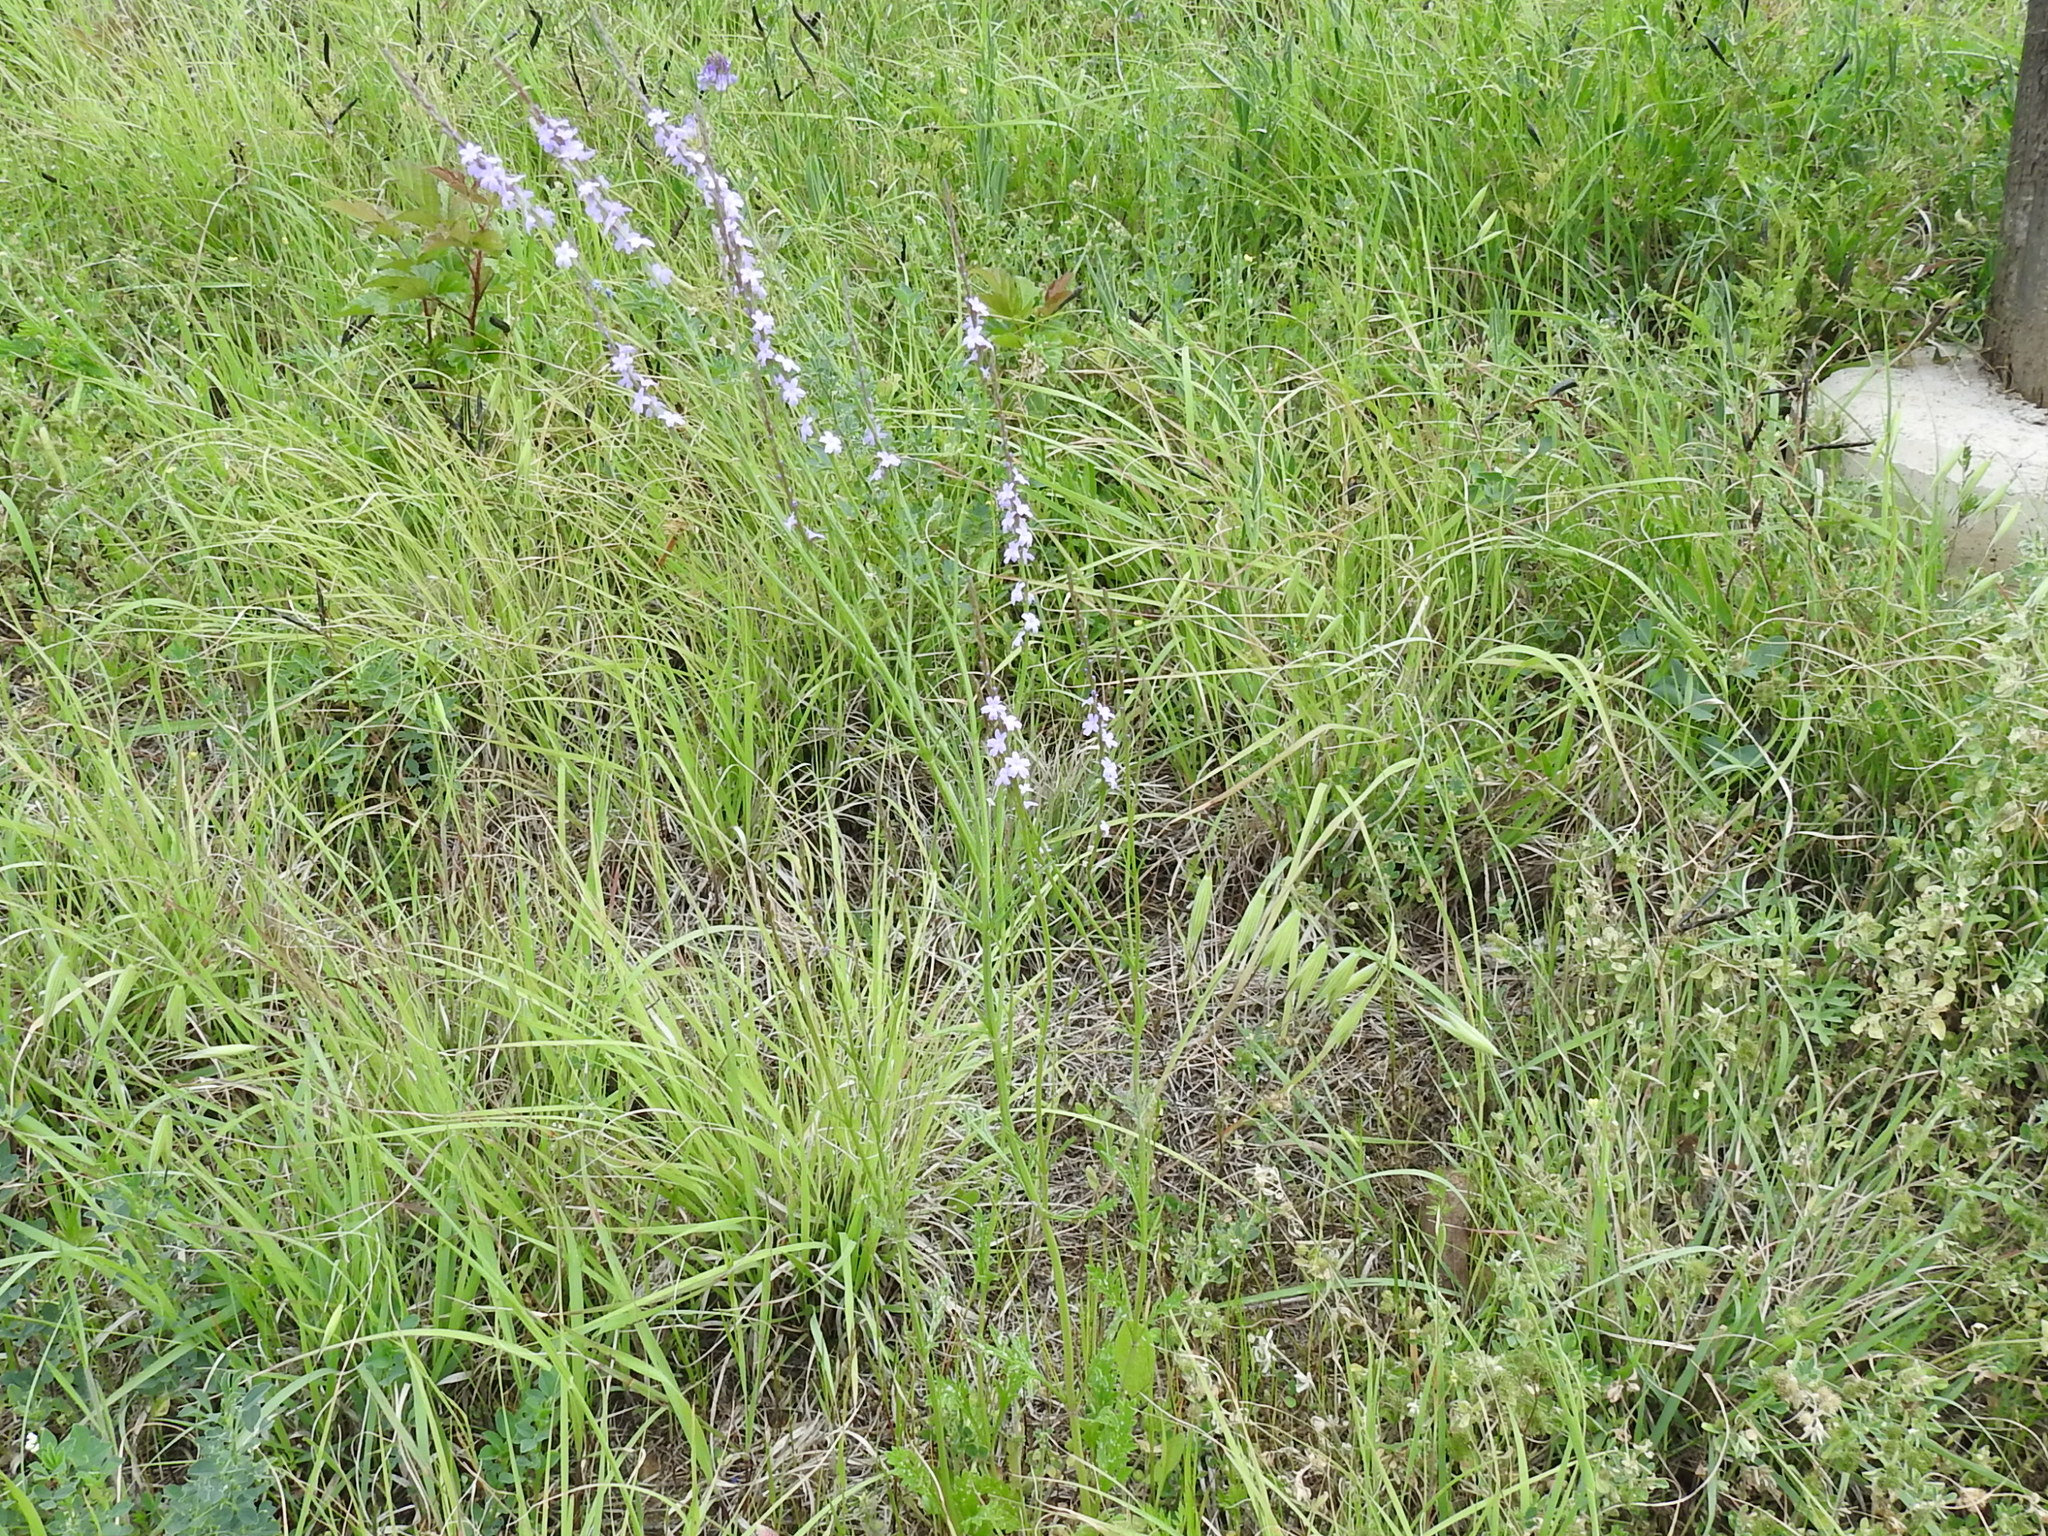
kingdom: Plantae
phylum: Tracheophyta
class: Magnoliopsida
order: Lamiales
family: Verbenaceae
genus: Verbena
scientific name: Verbena halei
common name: Texas vervain
